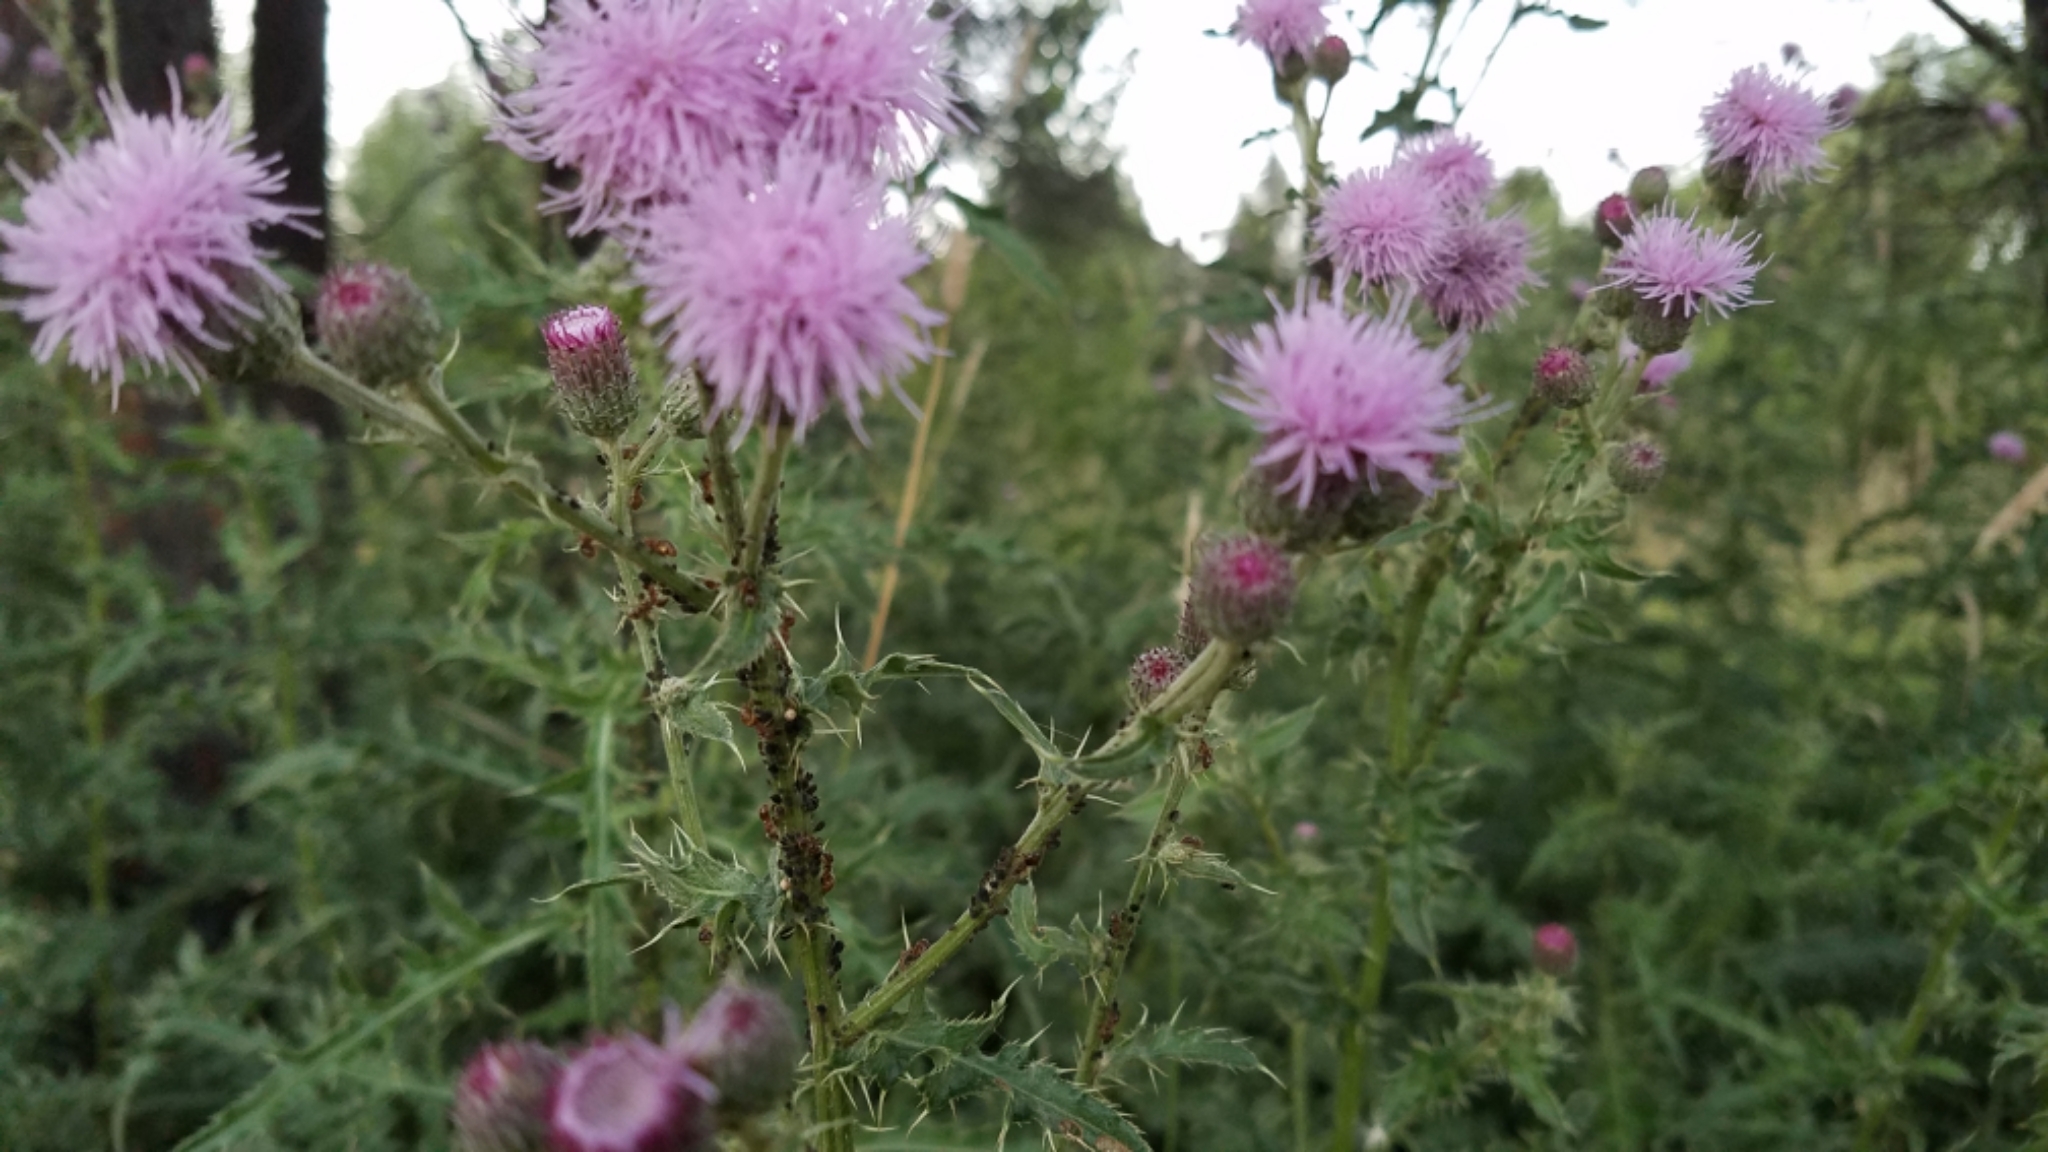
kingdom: Plantae
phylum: Tracheophyta
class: Magnoliopsida
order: Asterales
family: Asteraceae
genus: Cirsium
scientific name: Cirsium arvense
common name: Creeping thistle
